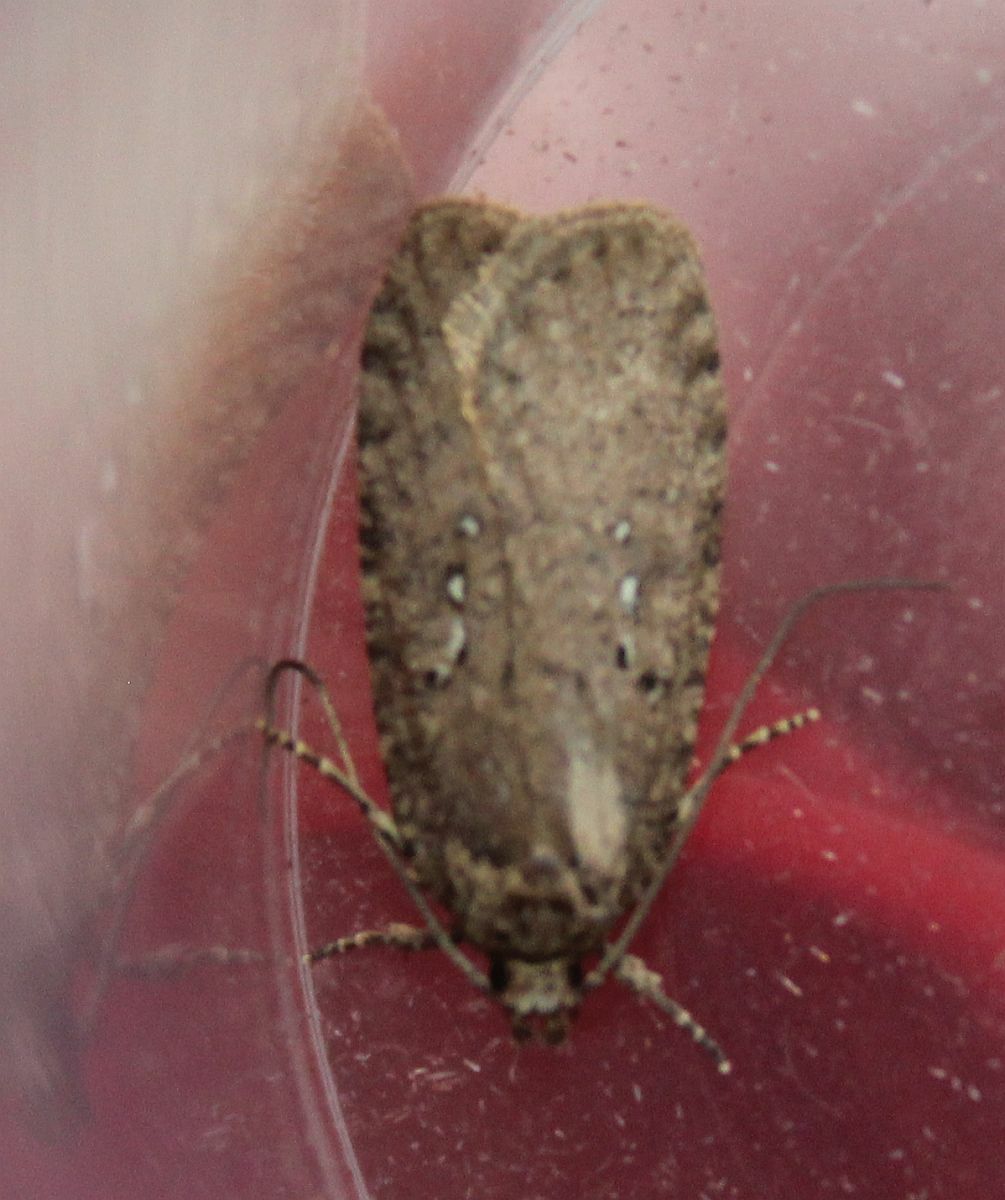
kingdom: Animalia
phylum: Arthropoda
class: Insecta
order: Lepidoptera
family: Depressariidae
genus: Agonopterix
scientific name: Agonopterix heracliana
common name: Common flat-body
